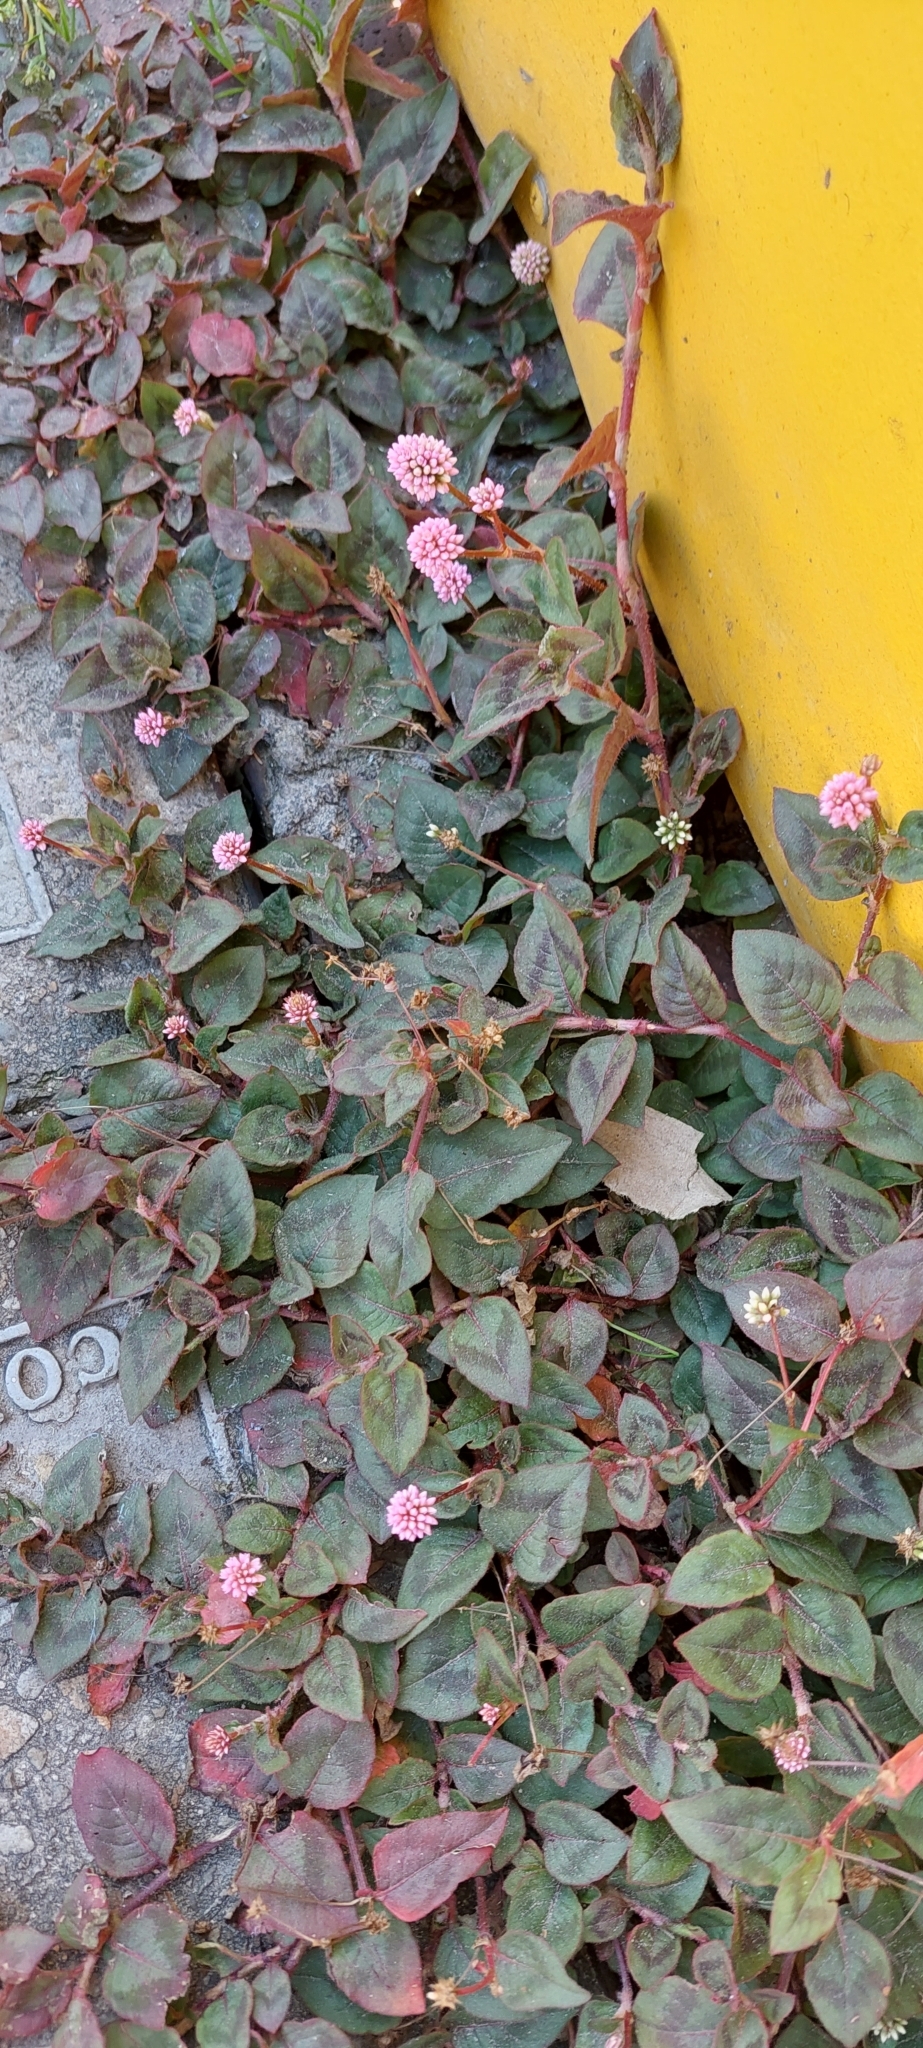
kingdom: Plantae
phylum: Tracheophyta
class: Magnoliopsida
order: Caryophyllales
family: Polygonaceae
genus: Persicaria
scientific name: Persicaria capitata
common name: Pinkhead smartweed
